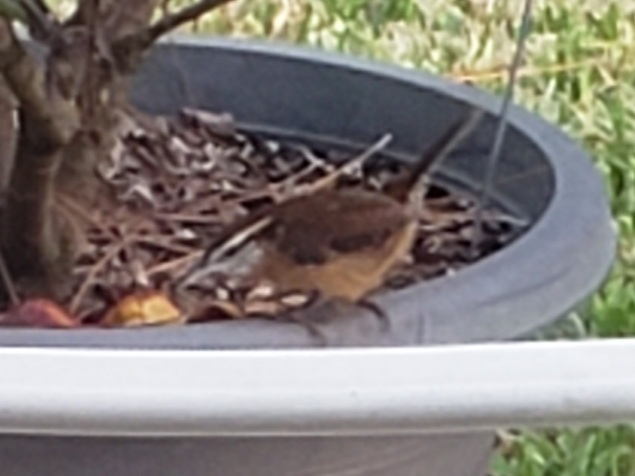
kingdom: Animalia
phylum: Chordata
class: Aves
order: Passeriformes
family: Troglodytidae
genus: Thryothorus
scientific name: Thryothorus ludovicianus
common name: Carolina wren
